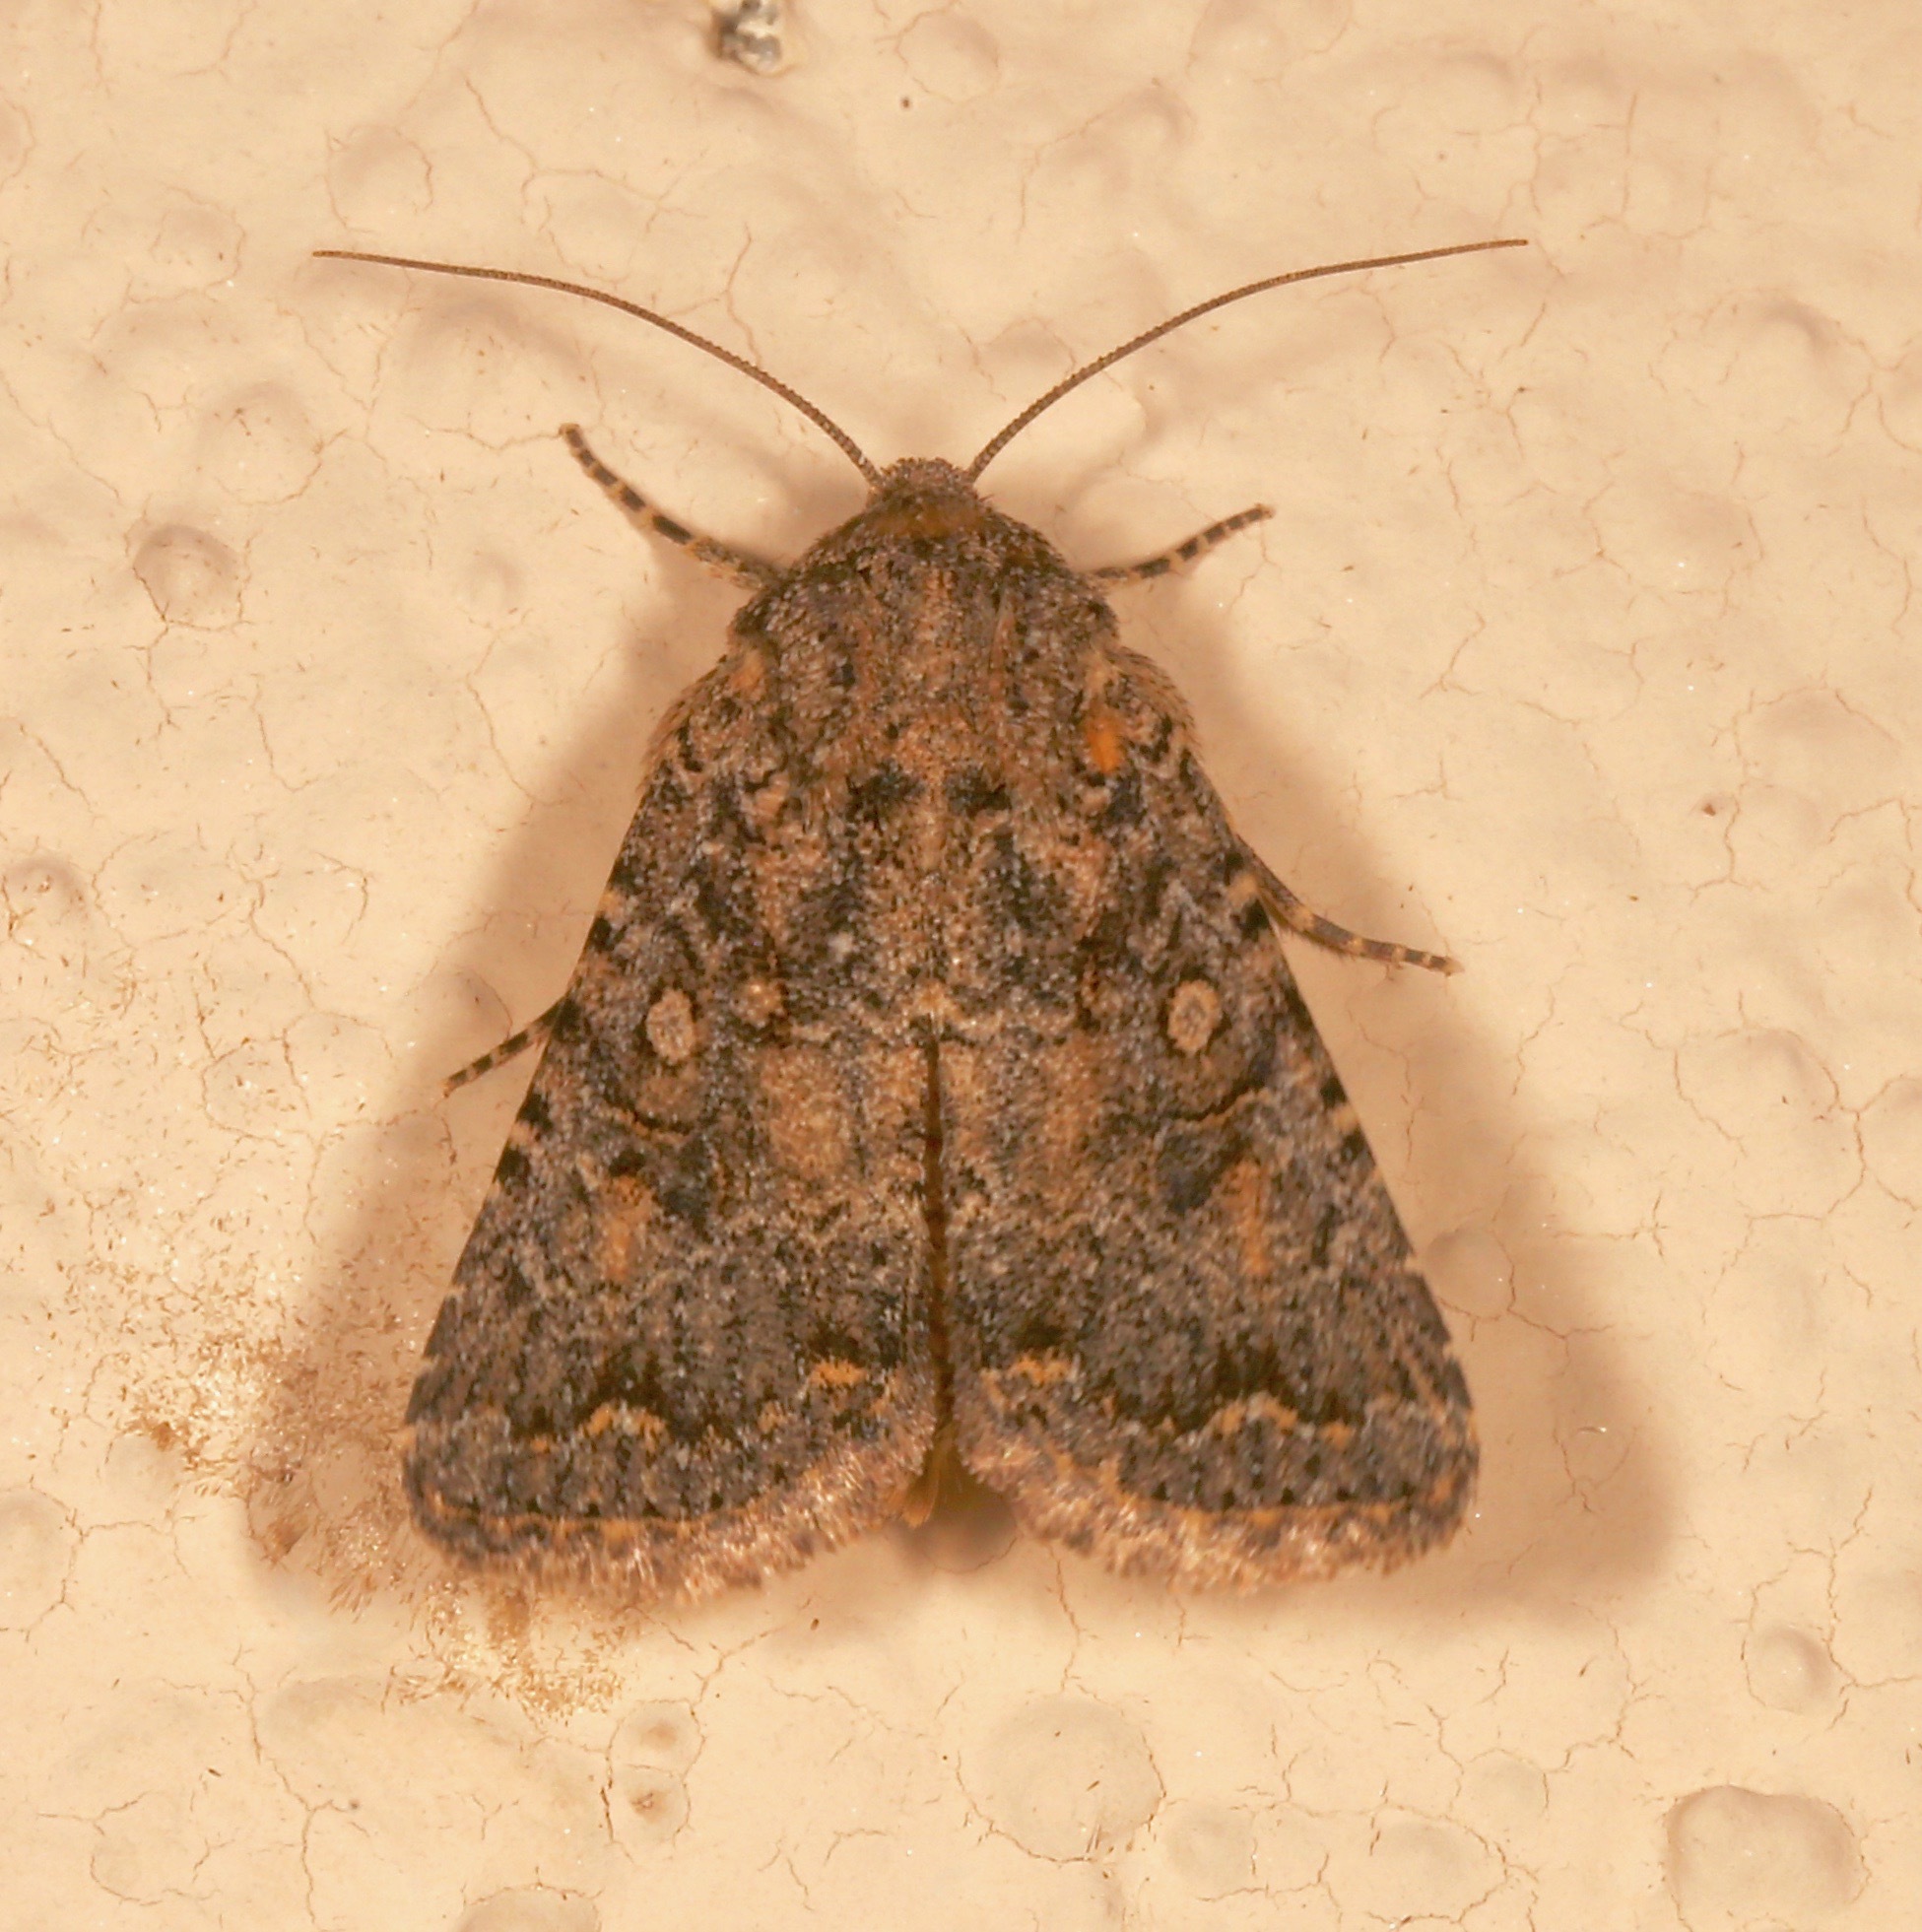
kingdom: Animalia
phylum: Arthropoda
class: Insecta
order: Lepidoptera
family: Noctuidae
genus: Trichopolia
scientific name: Trichopolia
